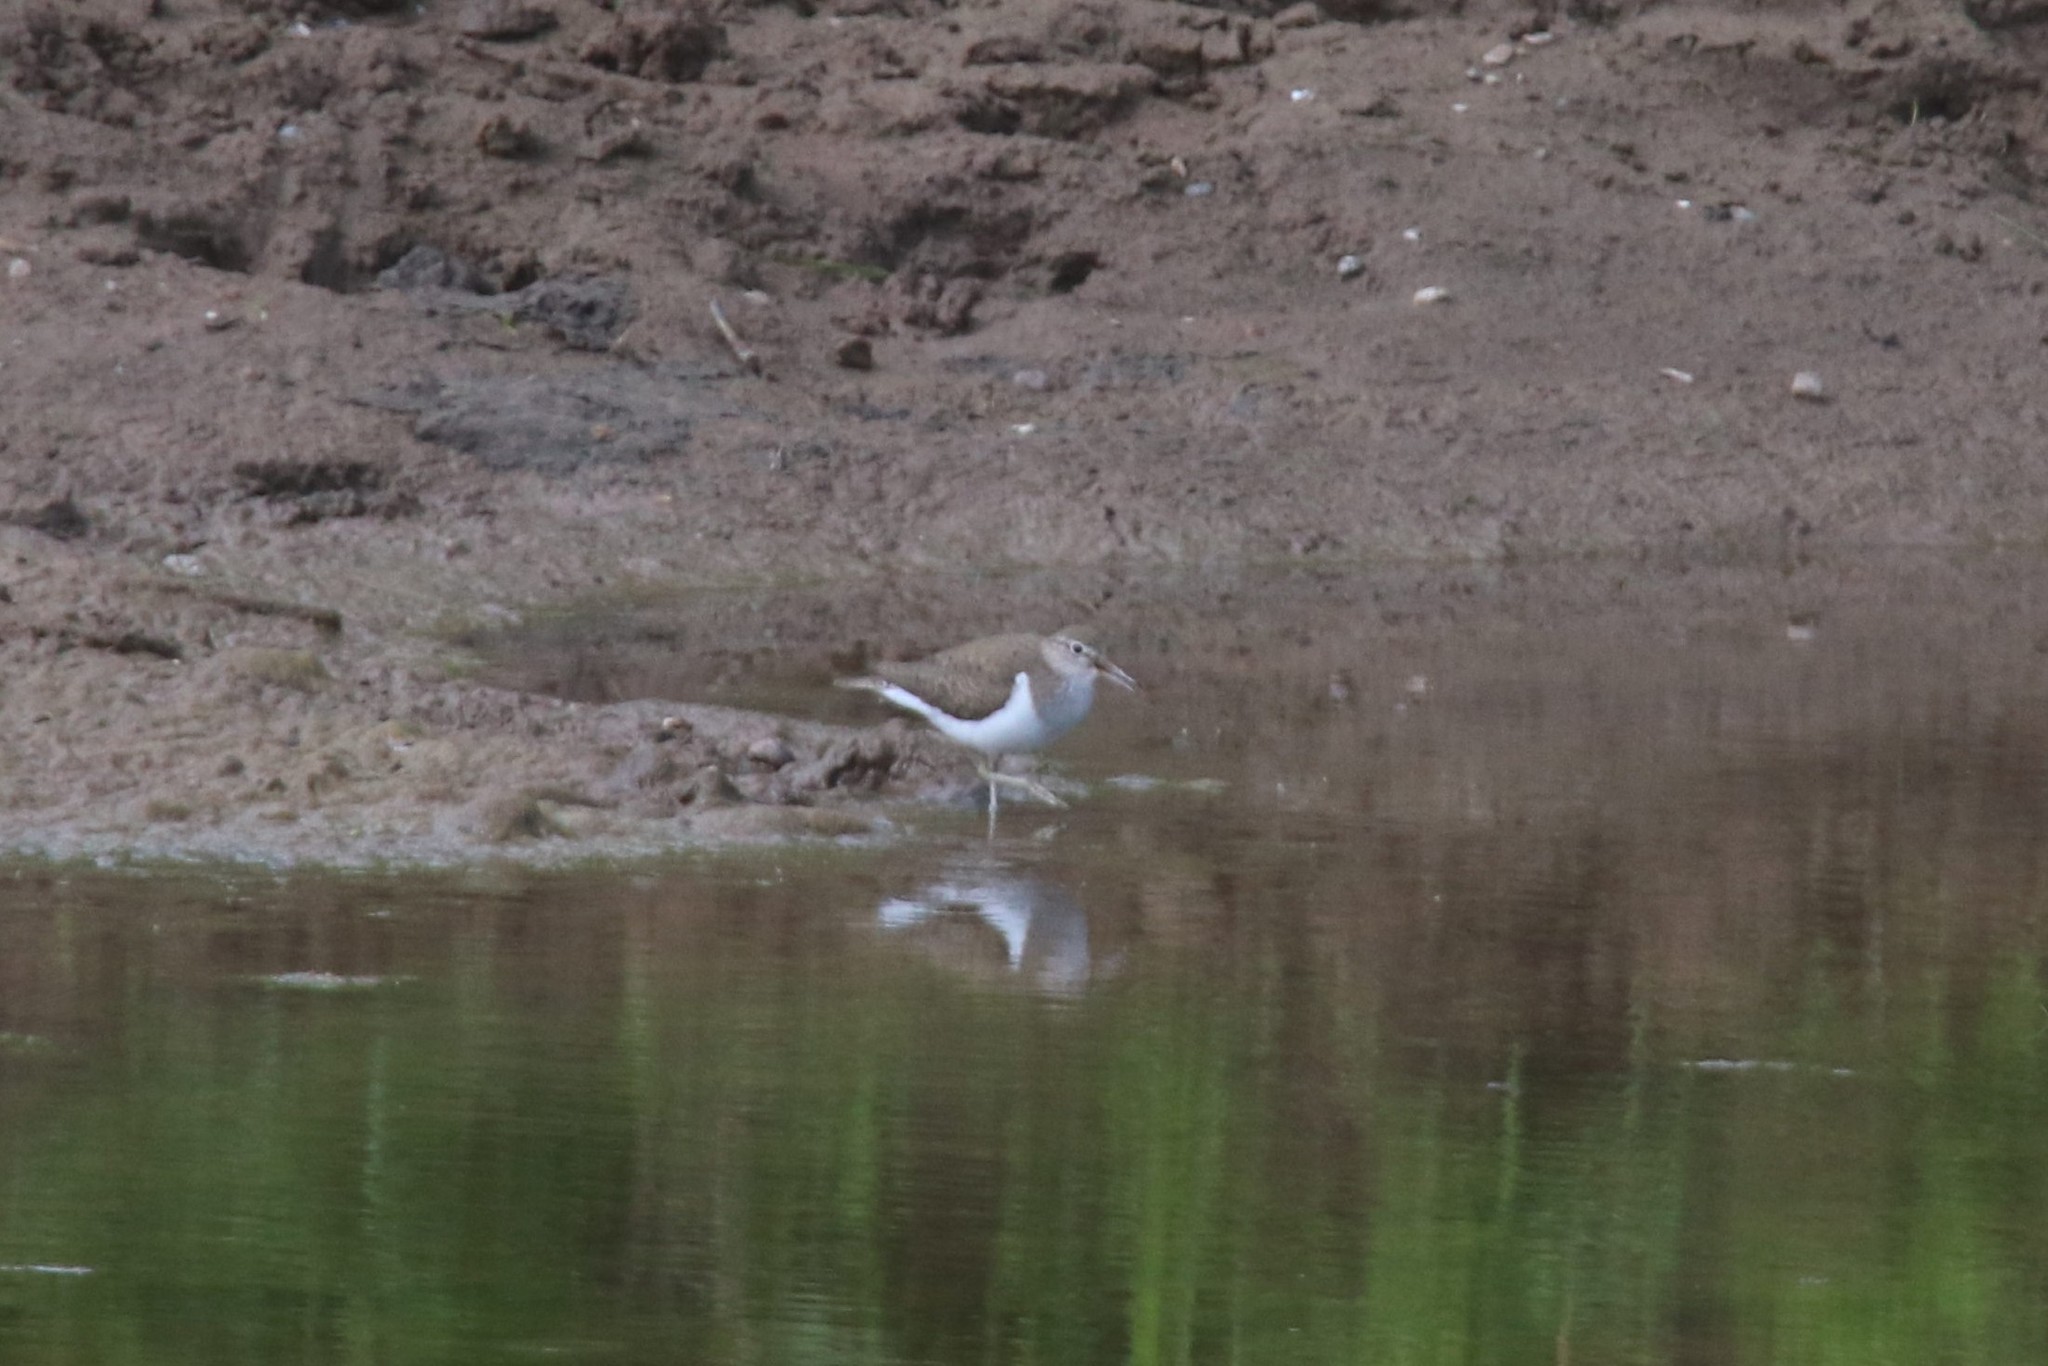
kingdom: Animalia
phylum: Chordata
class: Aves
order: Charadriiformes
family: Scolopacidae
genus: Actitis
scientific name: Actitis hypoleucos
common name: Common sandpiper
